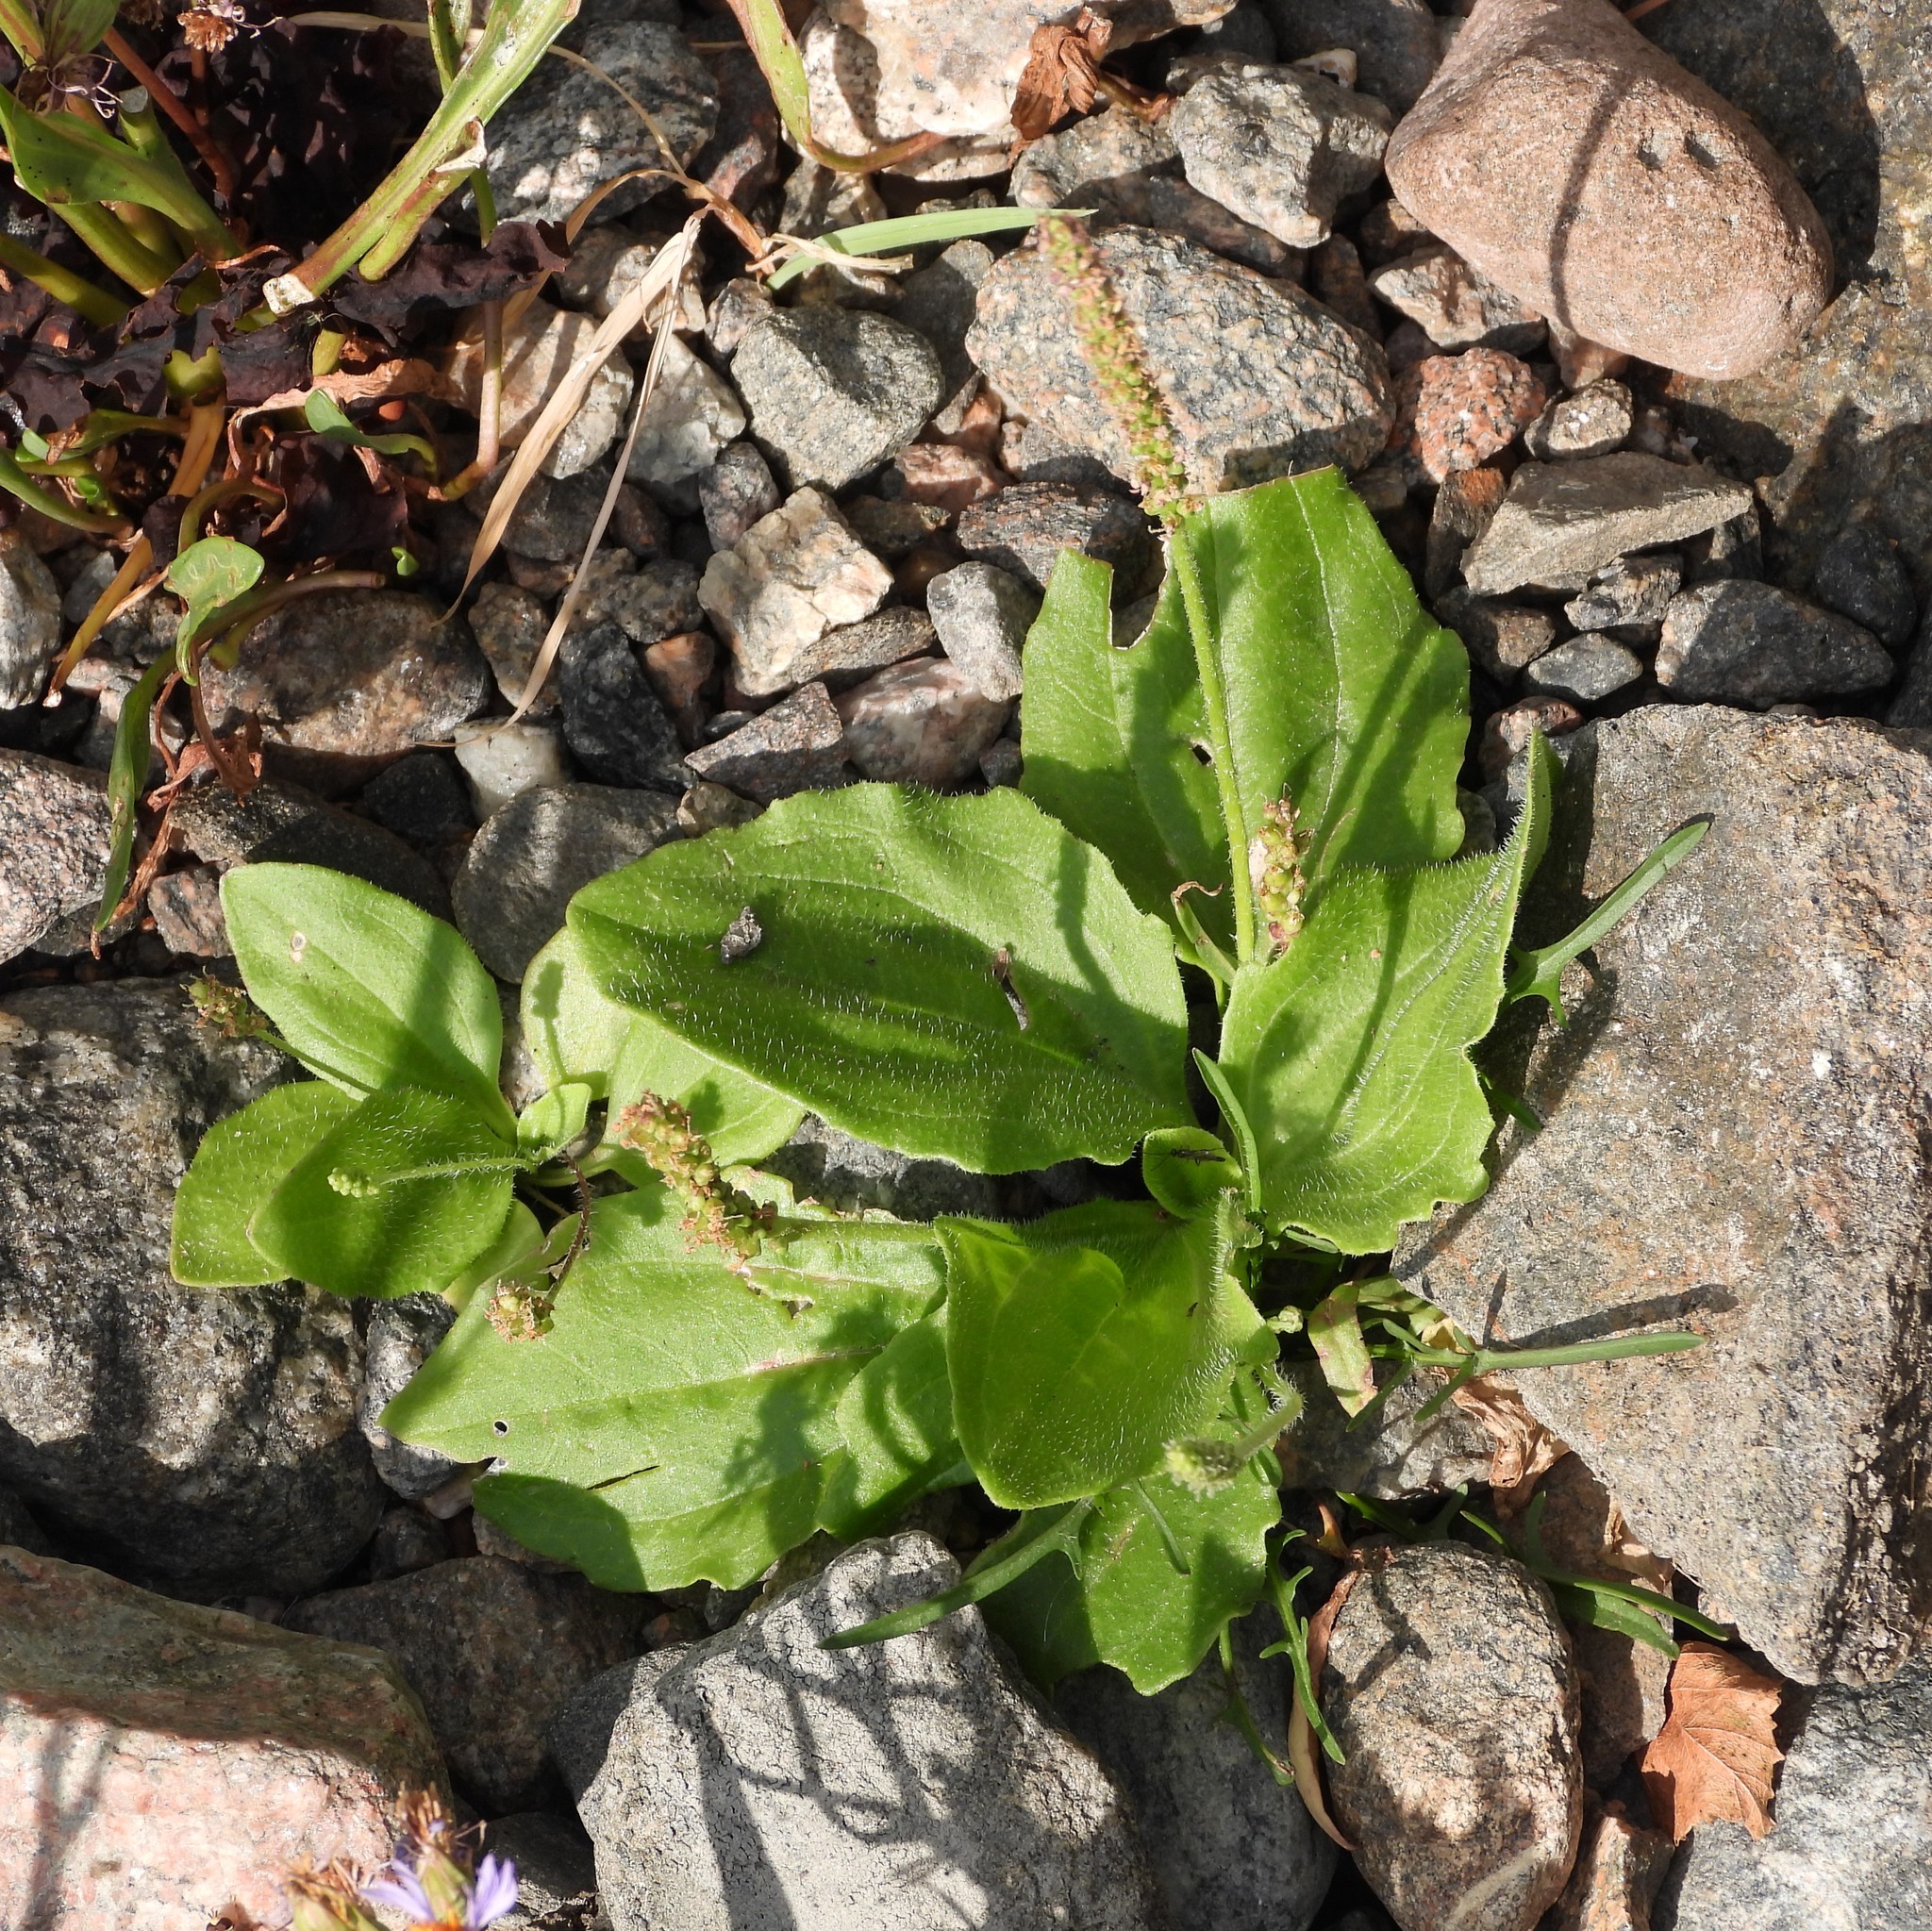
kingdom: Plantae
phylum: Tracheophyta
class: Magnoliopsida
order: Lamiales
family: Plantaginaceae
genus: Plantago
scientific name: Plantago major
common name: Common plantain
